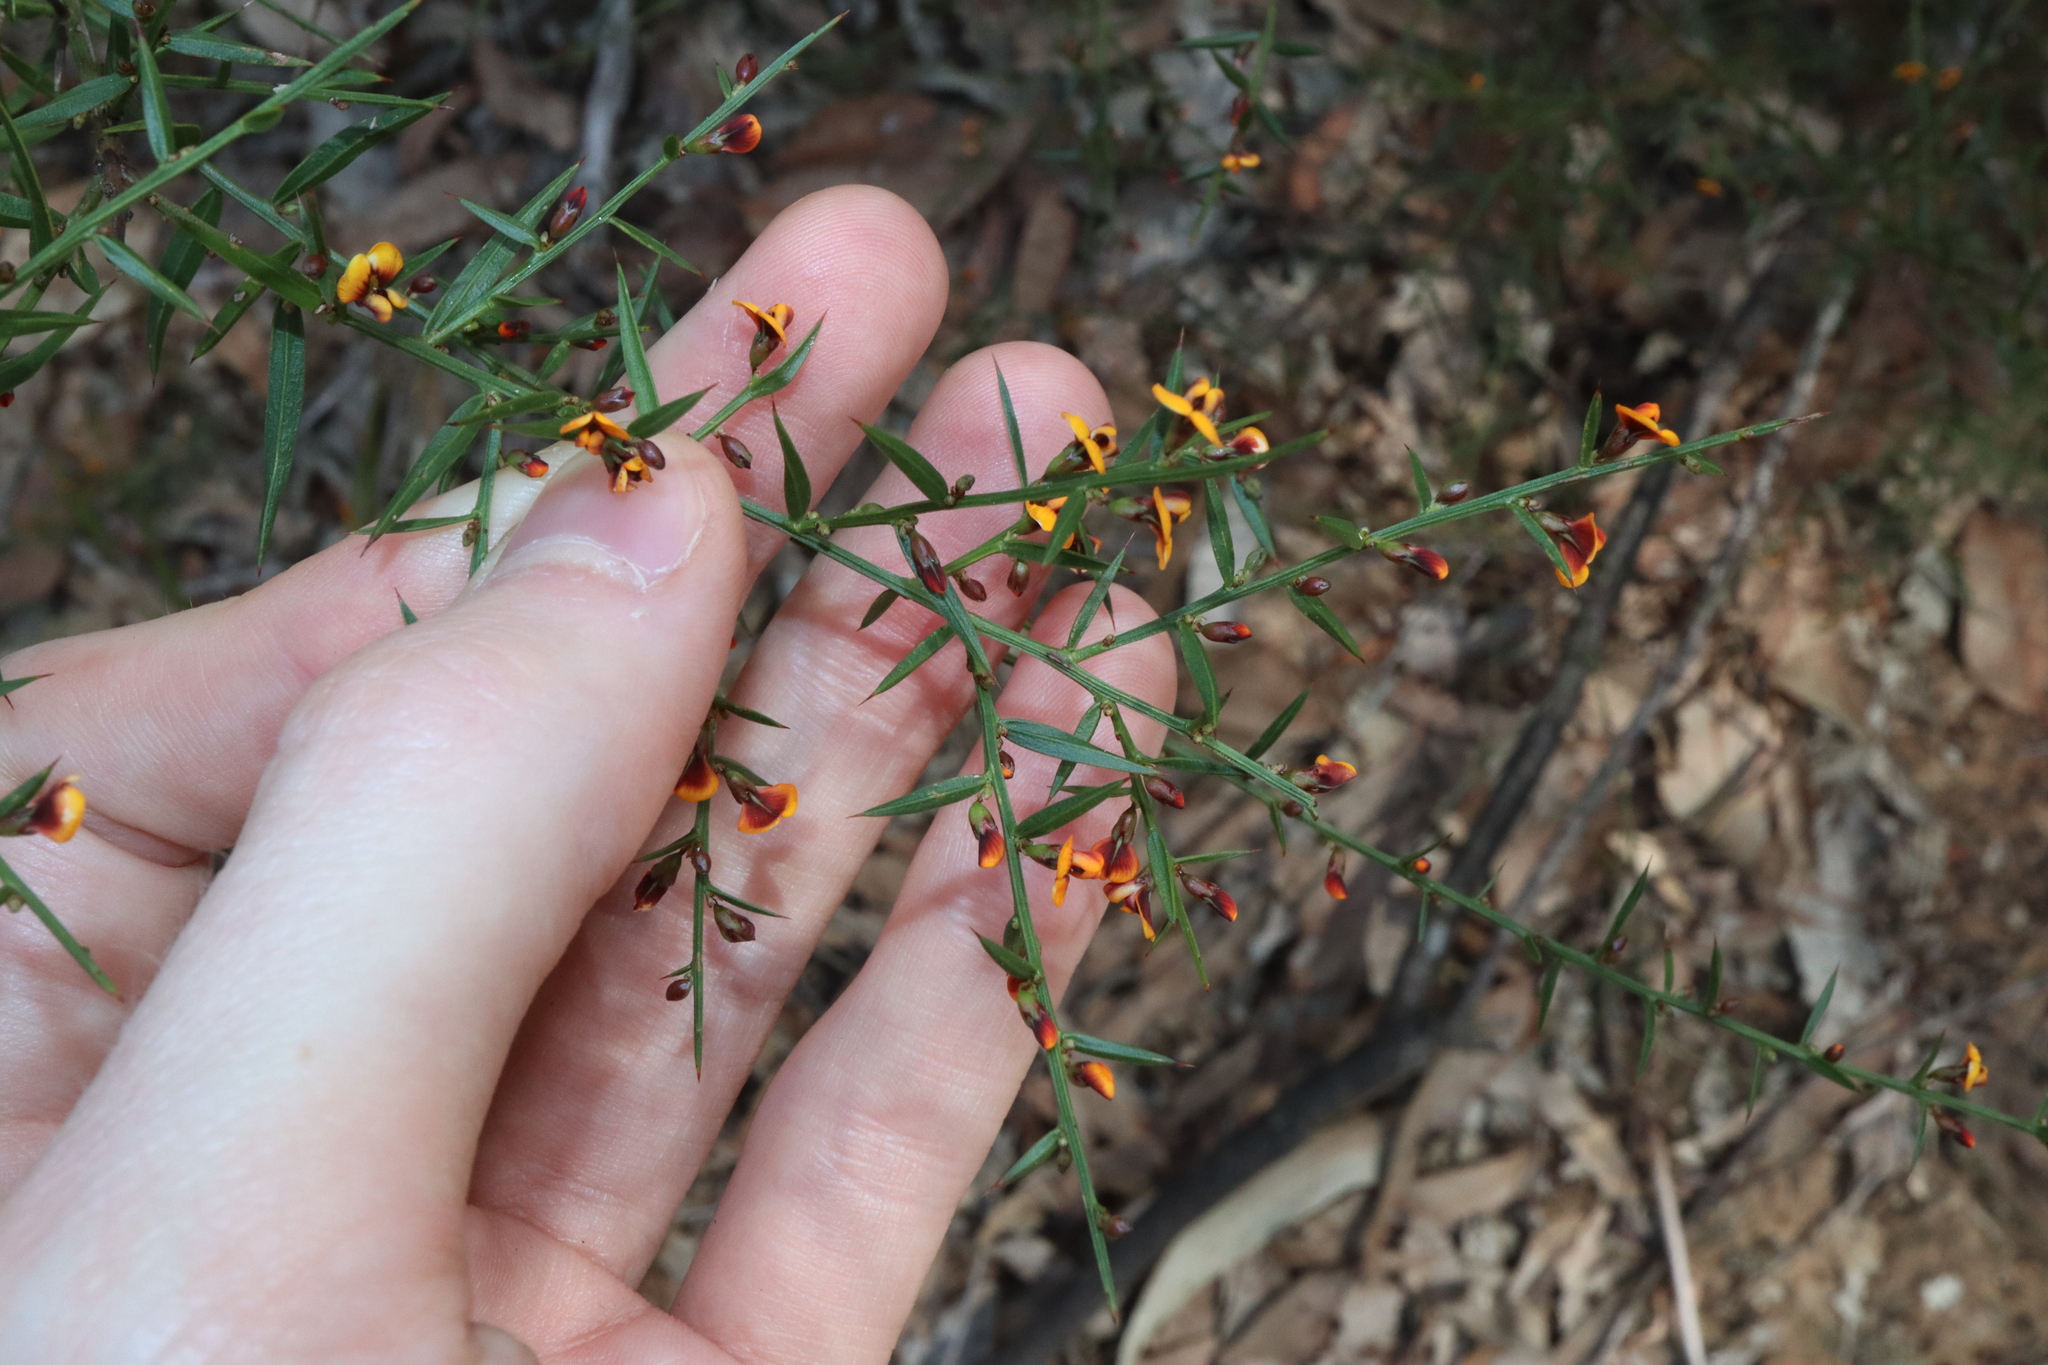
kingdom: Plantae
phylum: Tracheophyta
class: Magnoliopsida
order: Fabales
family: Fabaceae
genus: Daviesia
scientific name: Daviesia ulicifolia
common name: Gorse bitter-pea
